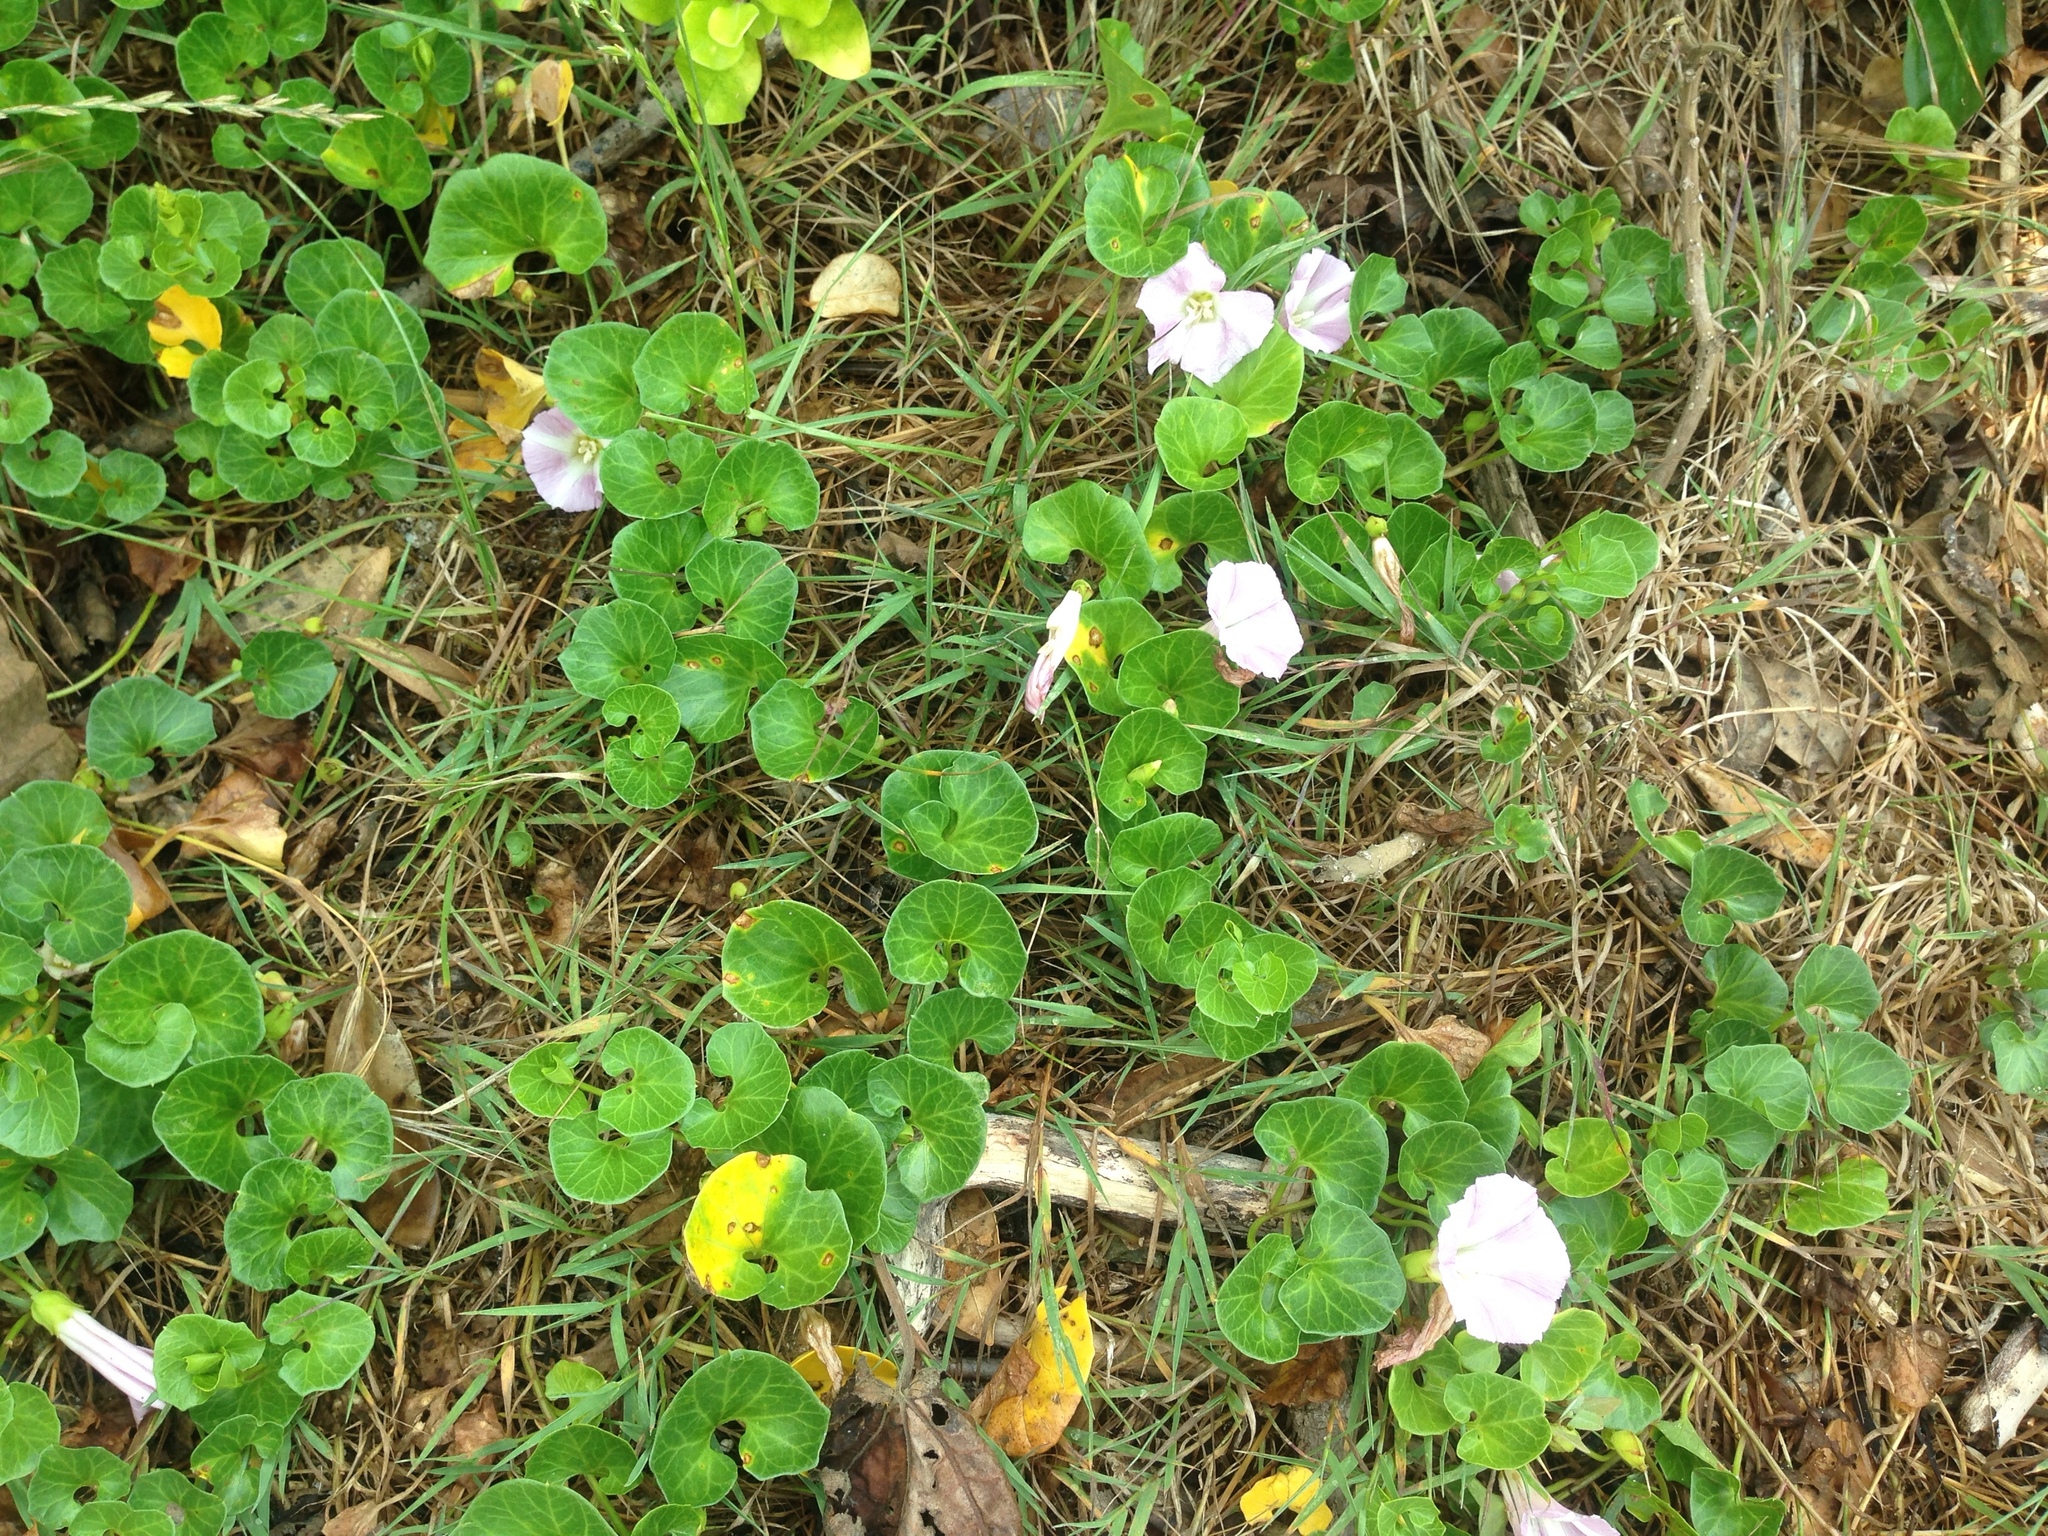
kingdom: Plantae
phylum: Tracheophyta
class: Magnoliopsida
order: Solanales
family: Convolvulaceae
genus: Calystegia
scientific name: Calystegia soldanella
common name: Sea bindweed
